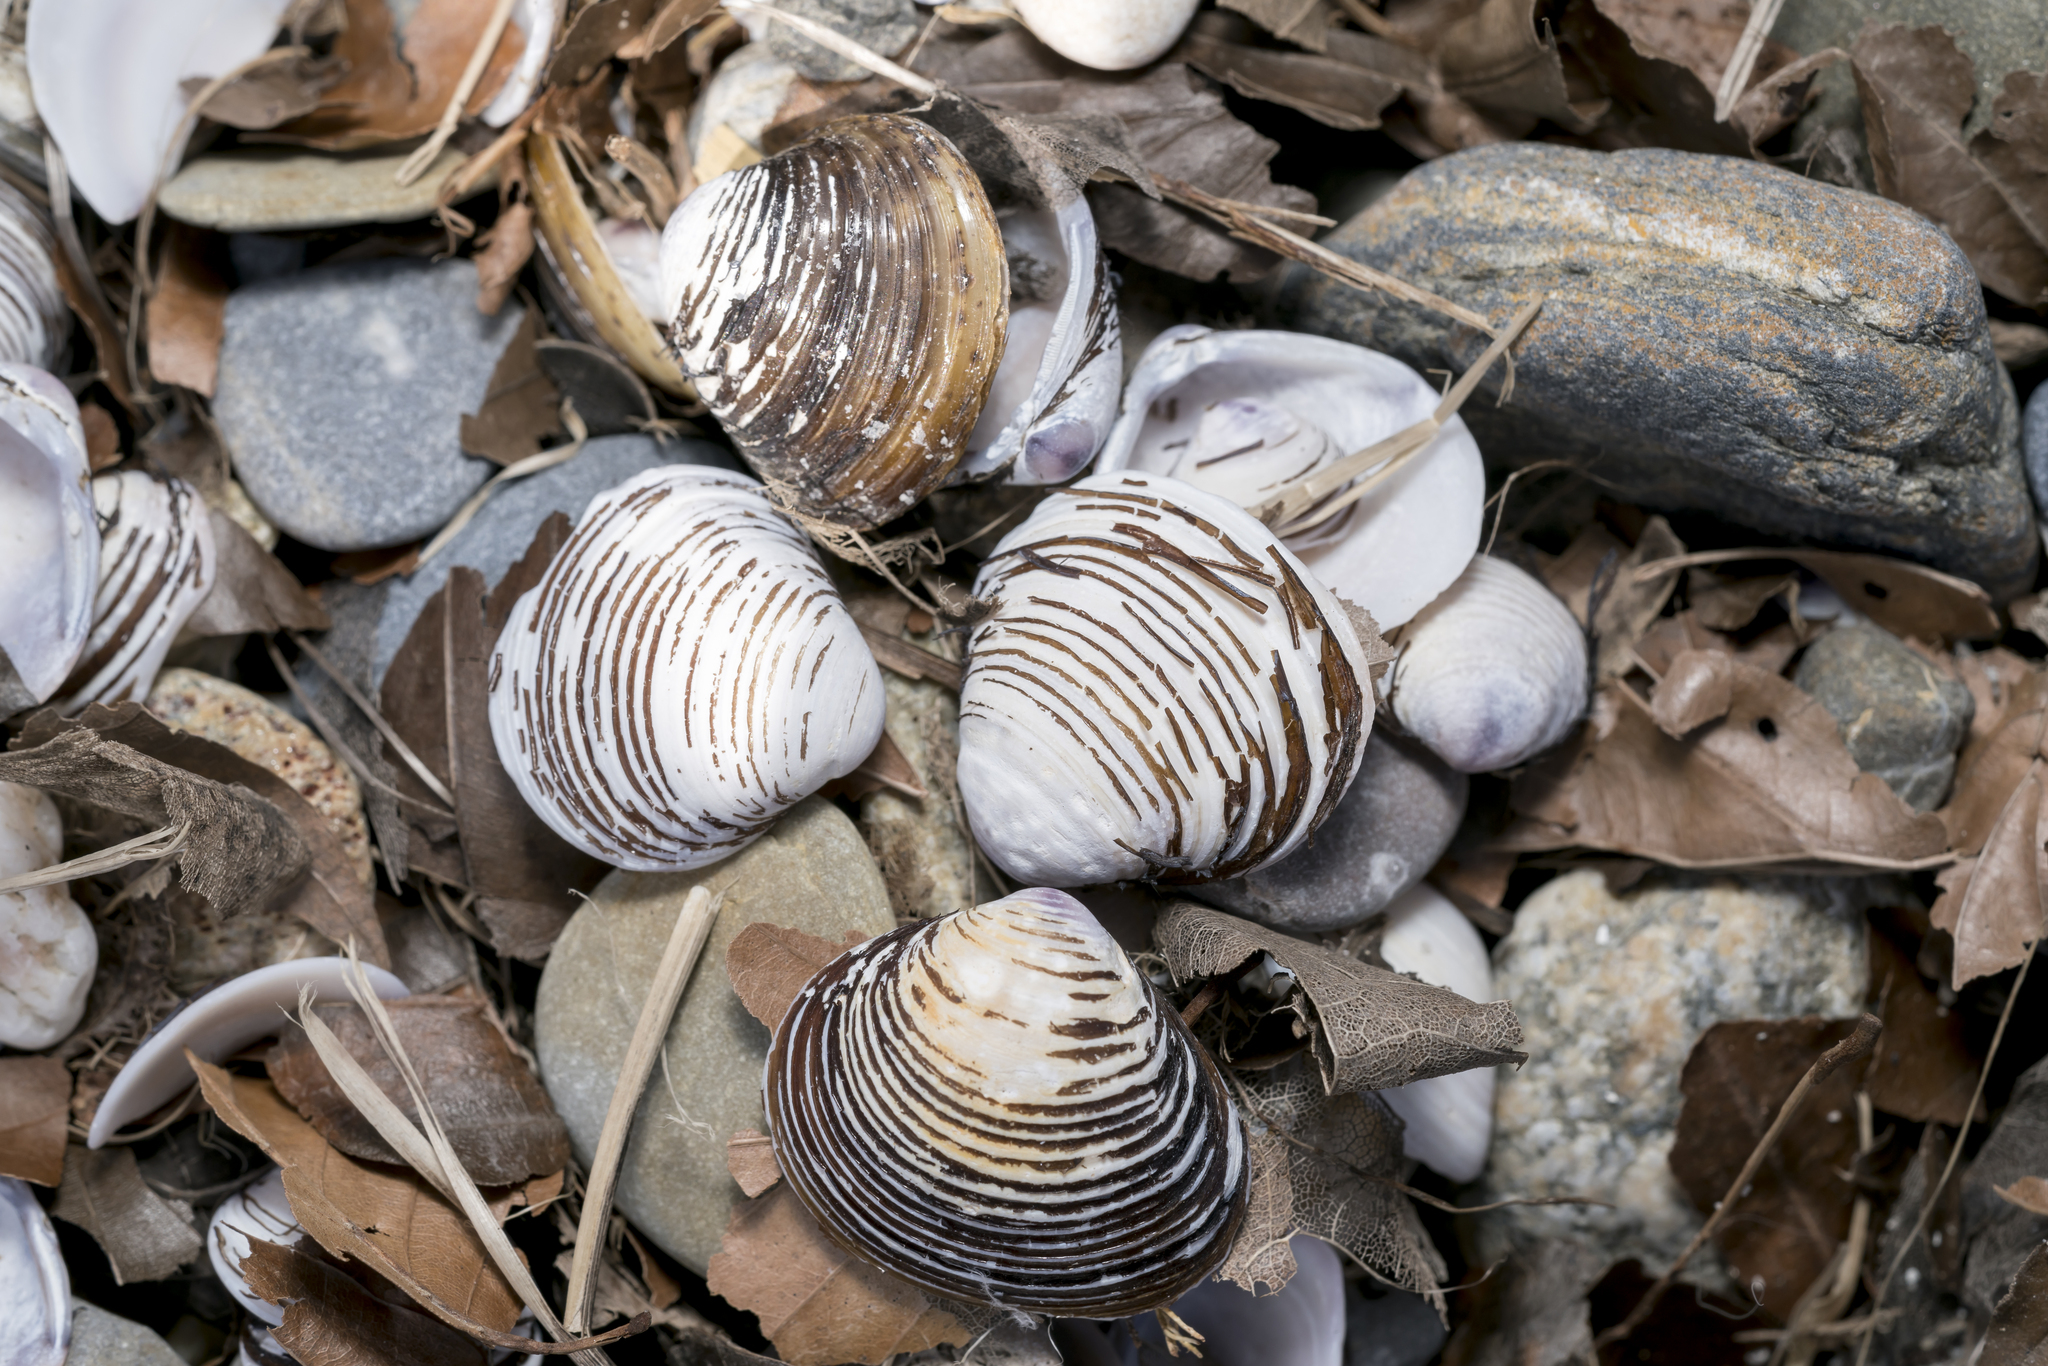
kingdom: Animalia
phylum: Mollusca
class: Bivalvia
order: Venerida
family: Cyrenidae
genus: Corbicula
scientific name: Corbicula fluminea
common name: Asian clam
